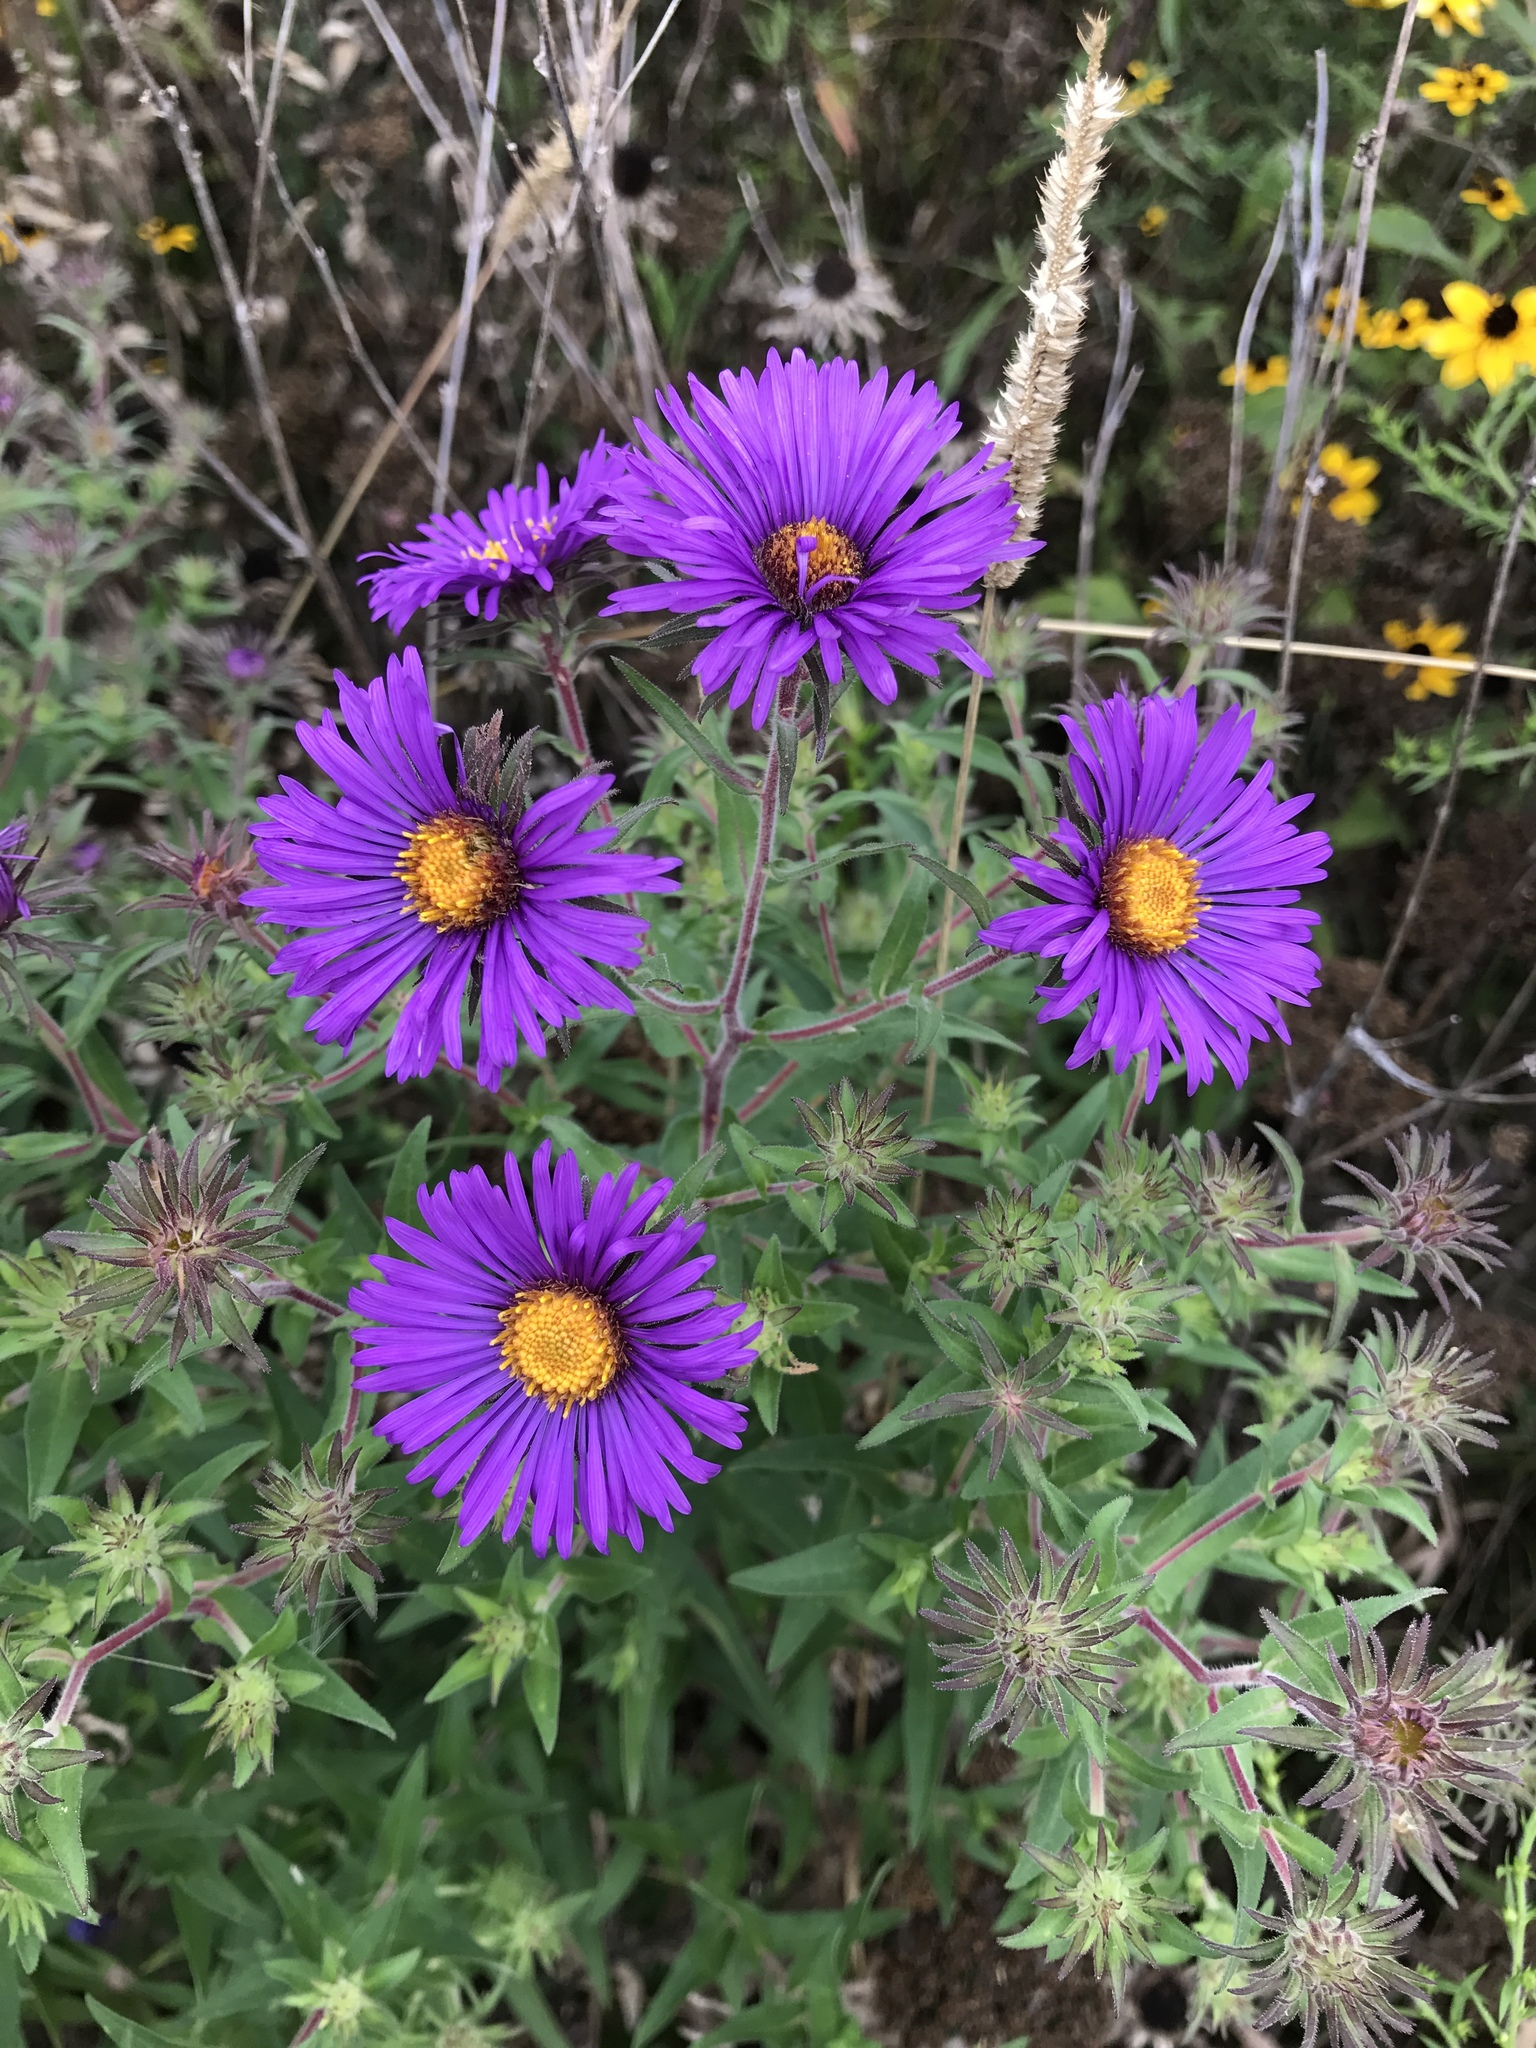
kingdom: Plantae
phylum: Tracheophyta
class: Magnoliopsida
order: Asterales
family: Asteraceae
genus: Symphyotrichum
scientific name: Symphyotrichum novae-angliae
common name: Michaelmas daisy
